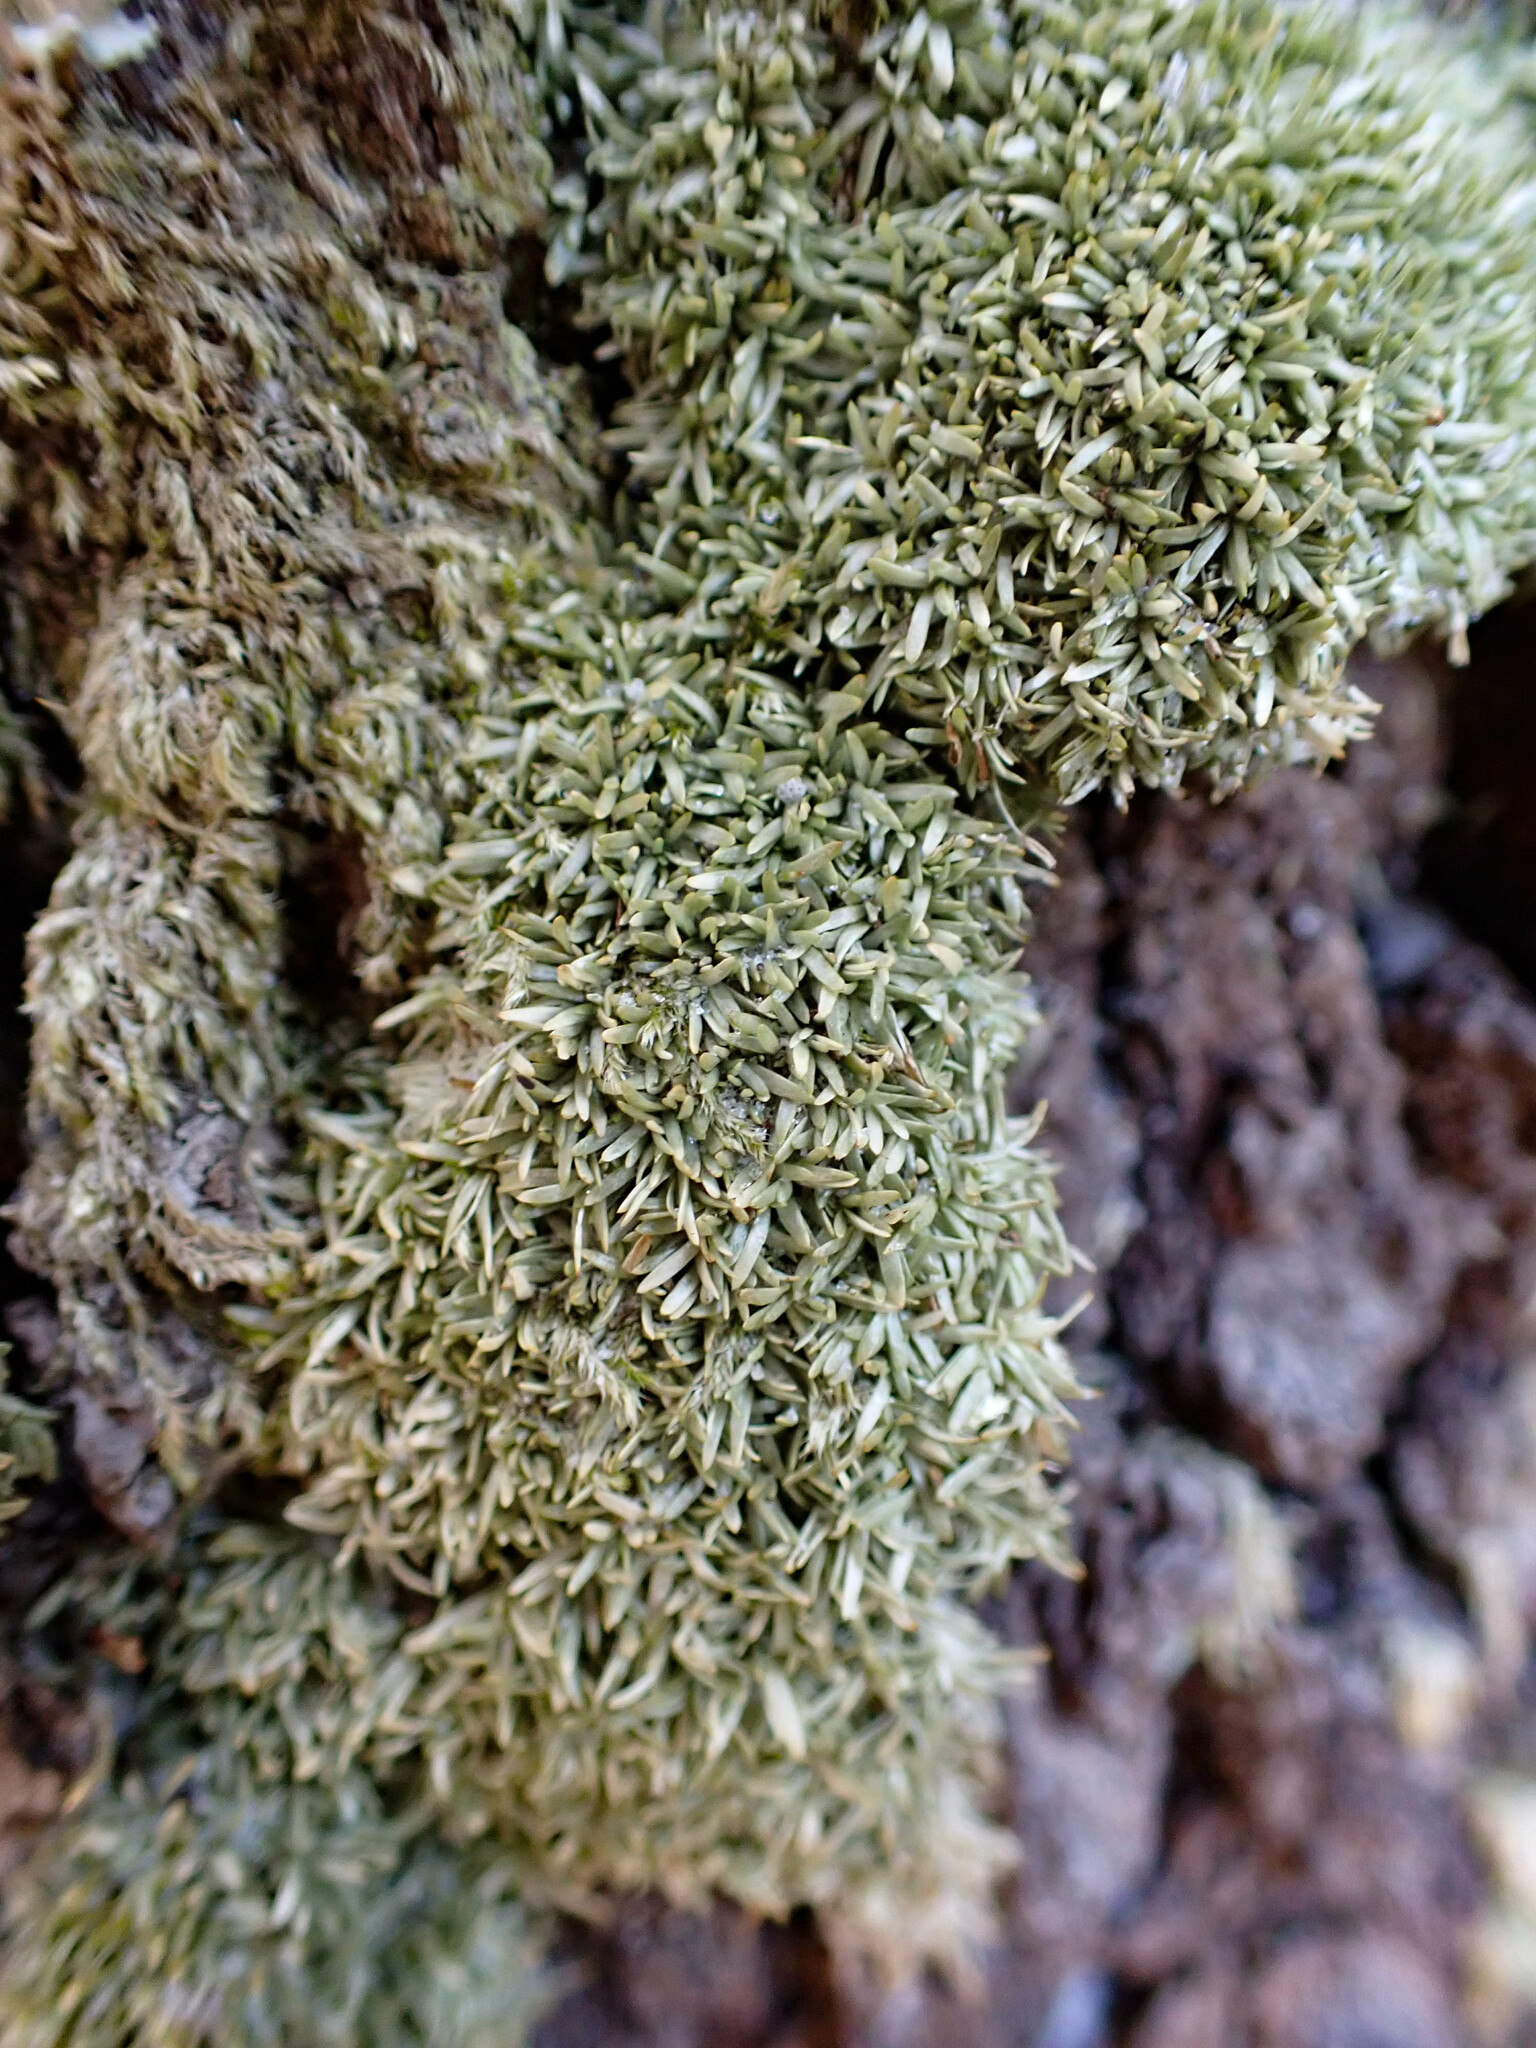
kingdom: Plantae
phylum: Bryophyta
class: Bryopsida
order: Dicranales
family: Octoblepharaceae
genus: Octoblepharum
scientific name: Octoblepharum albidum
